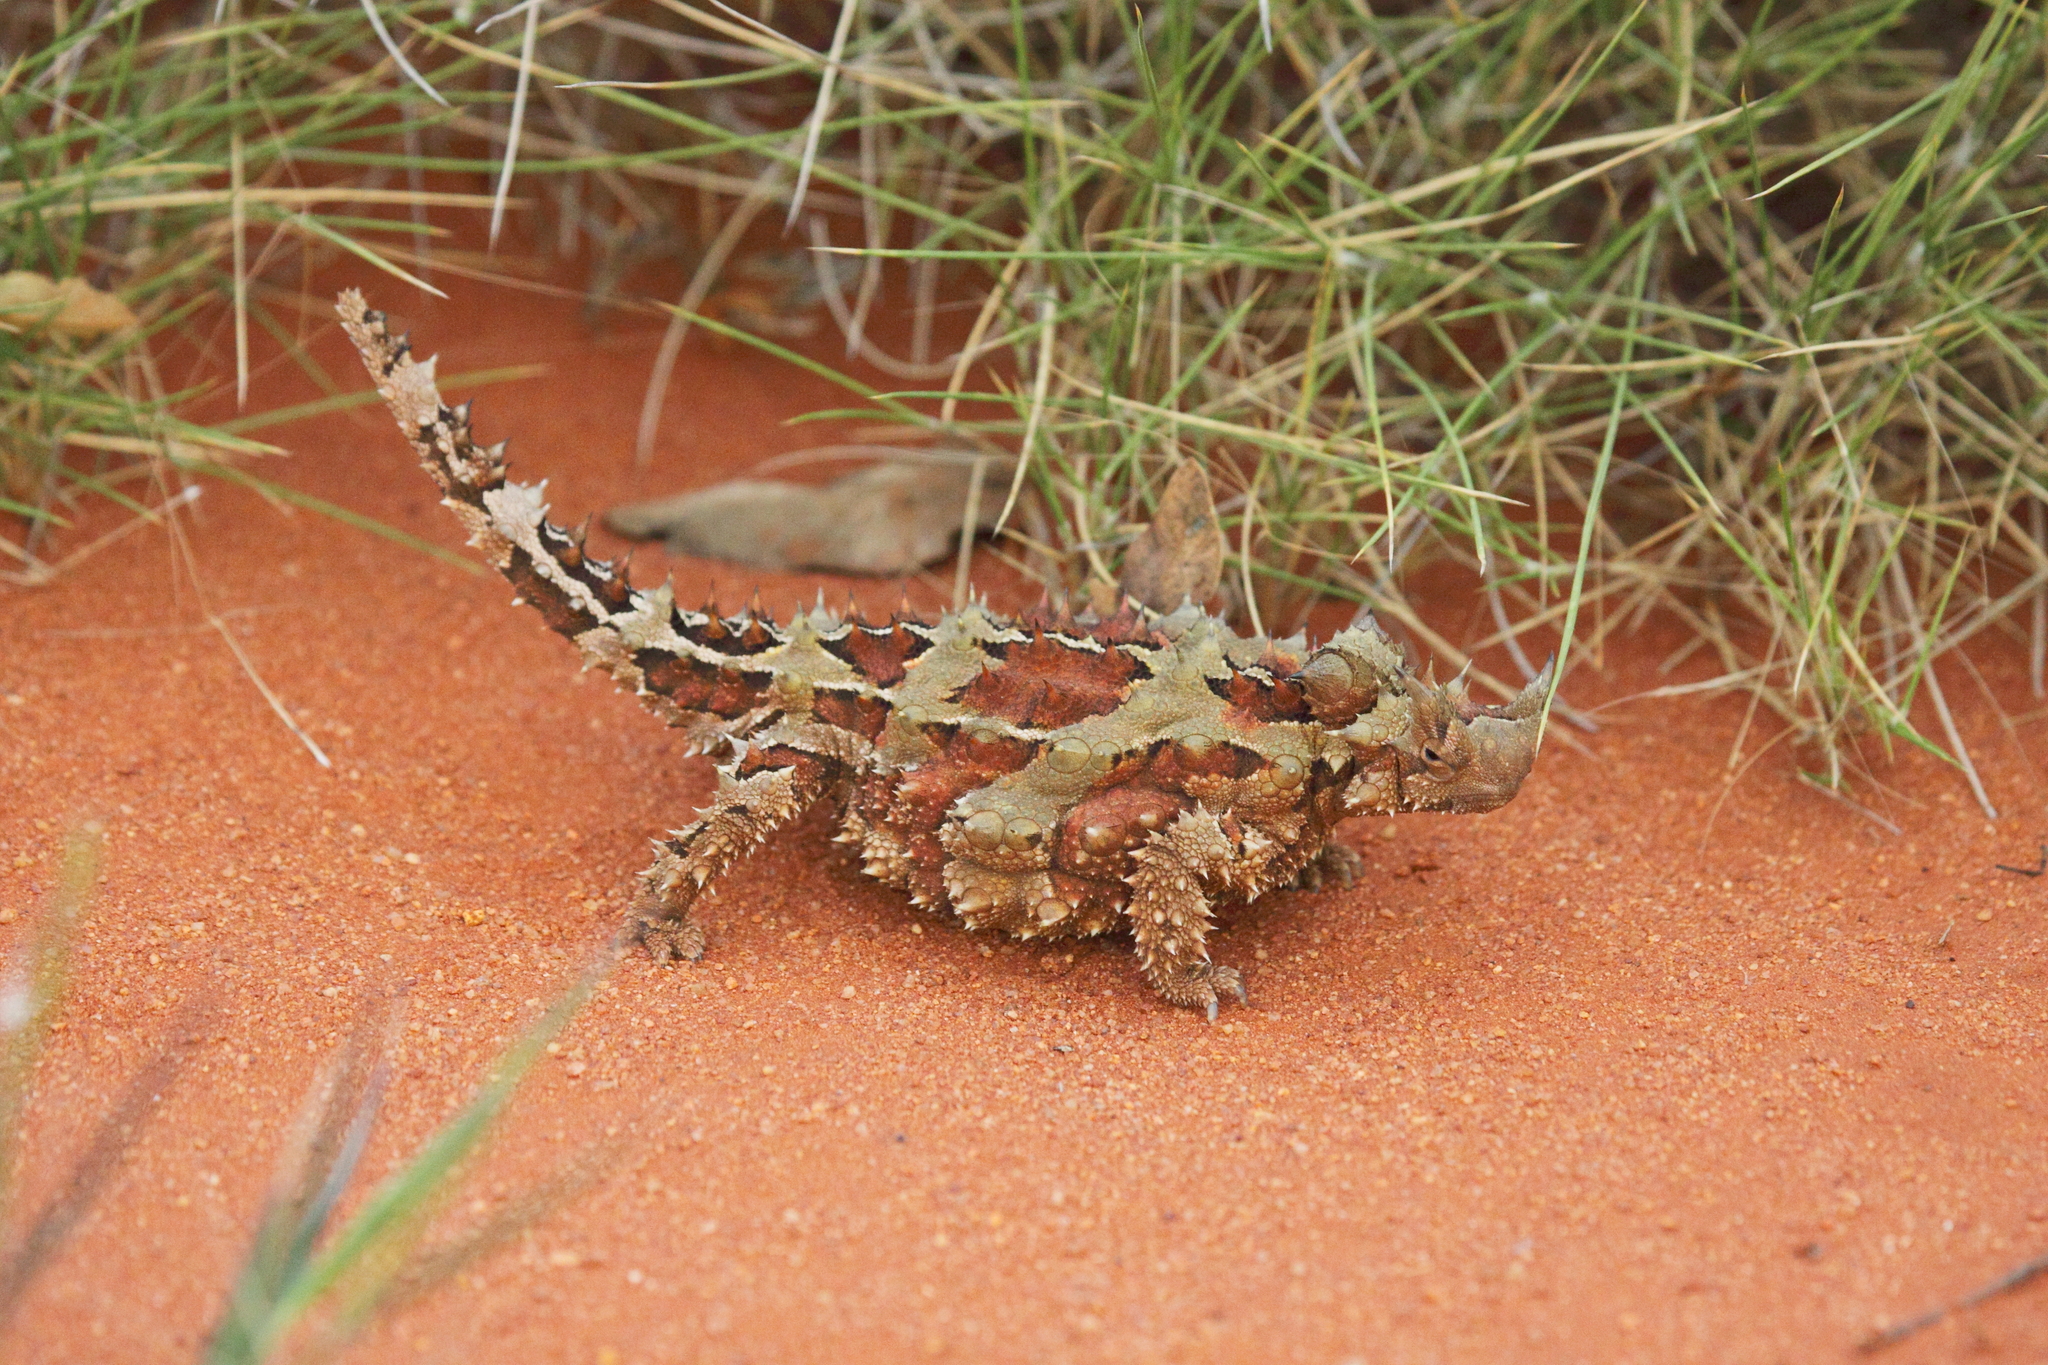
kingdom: Animalia
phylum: Chordata
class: Squamata
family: Agamidae
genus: Moloch
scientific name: Moloch horridus
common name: Mountain devil
